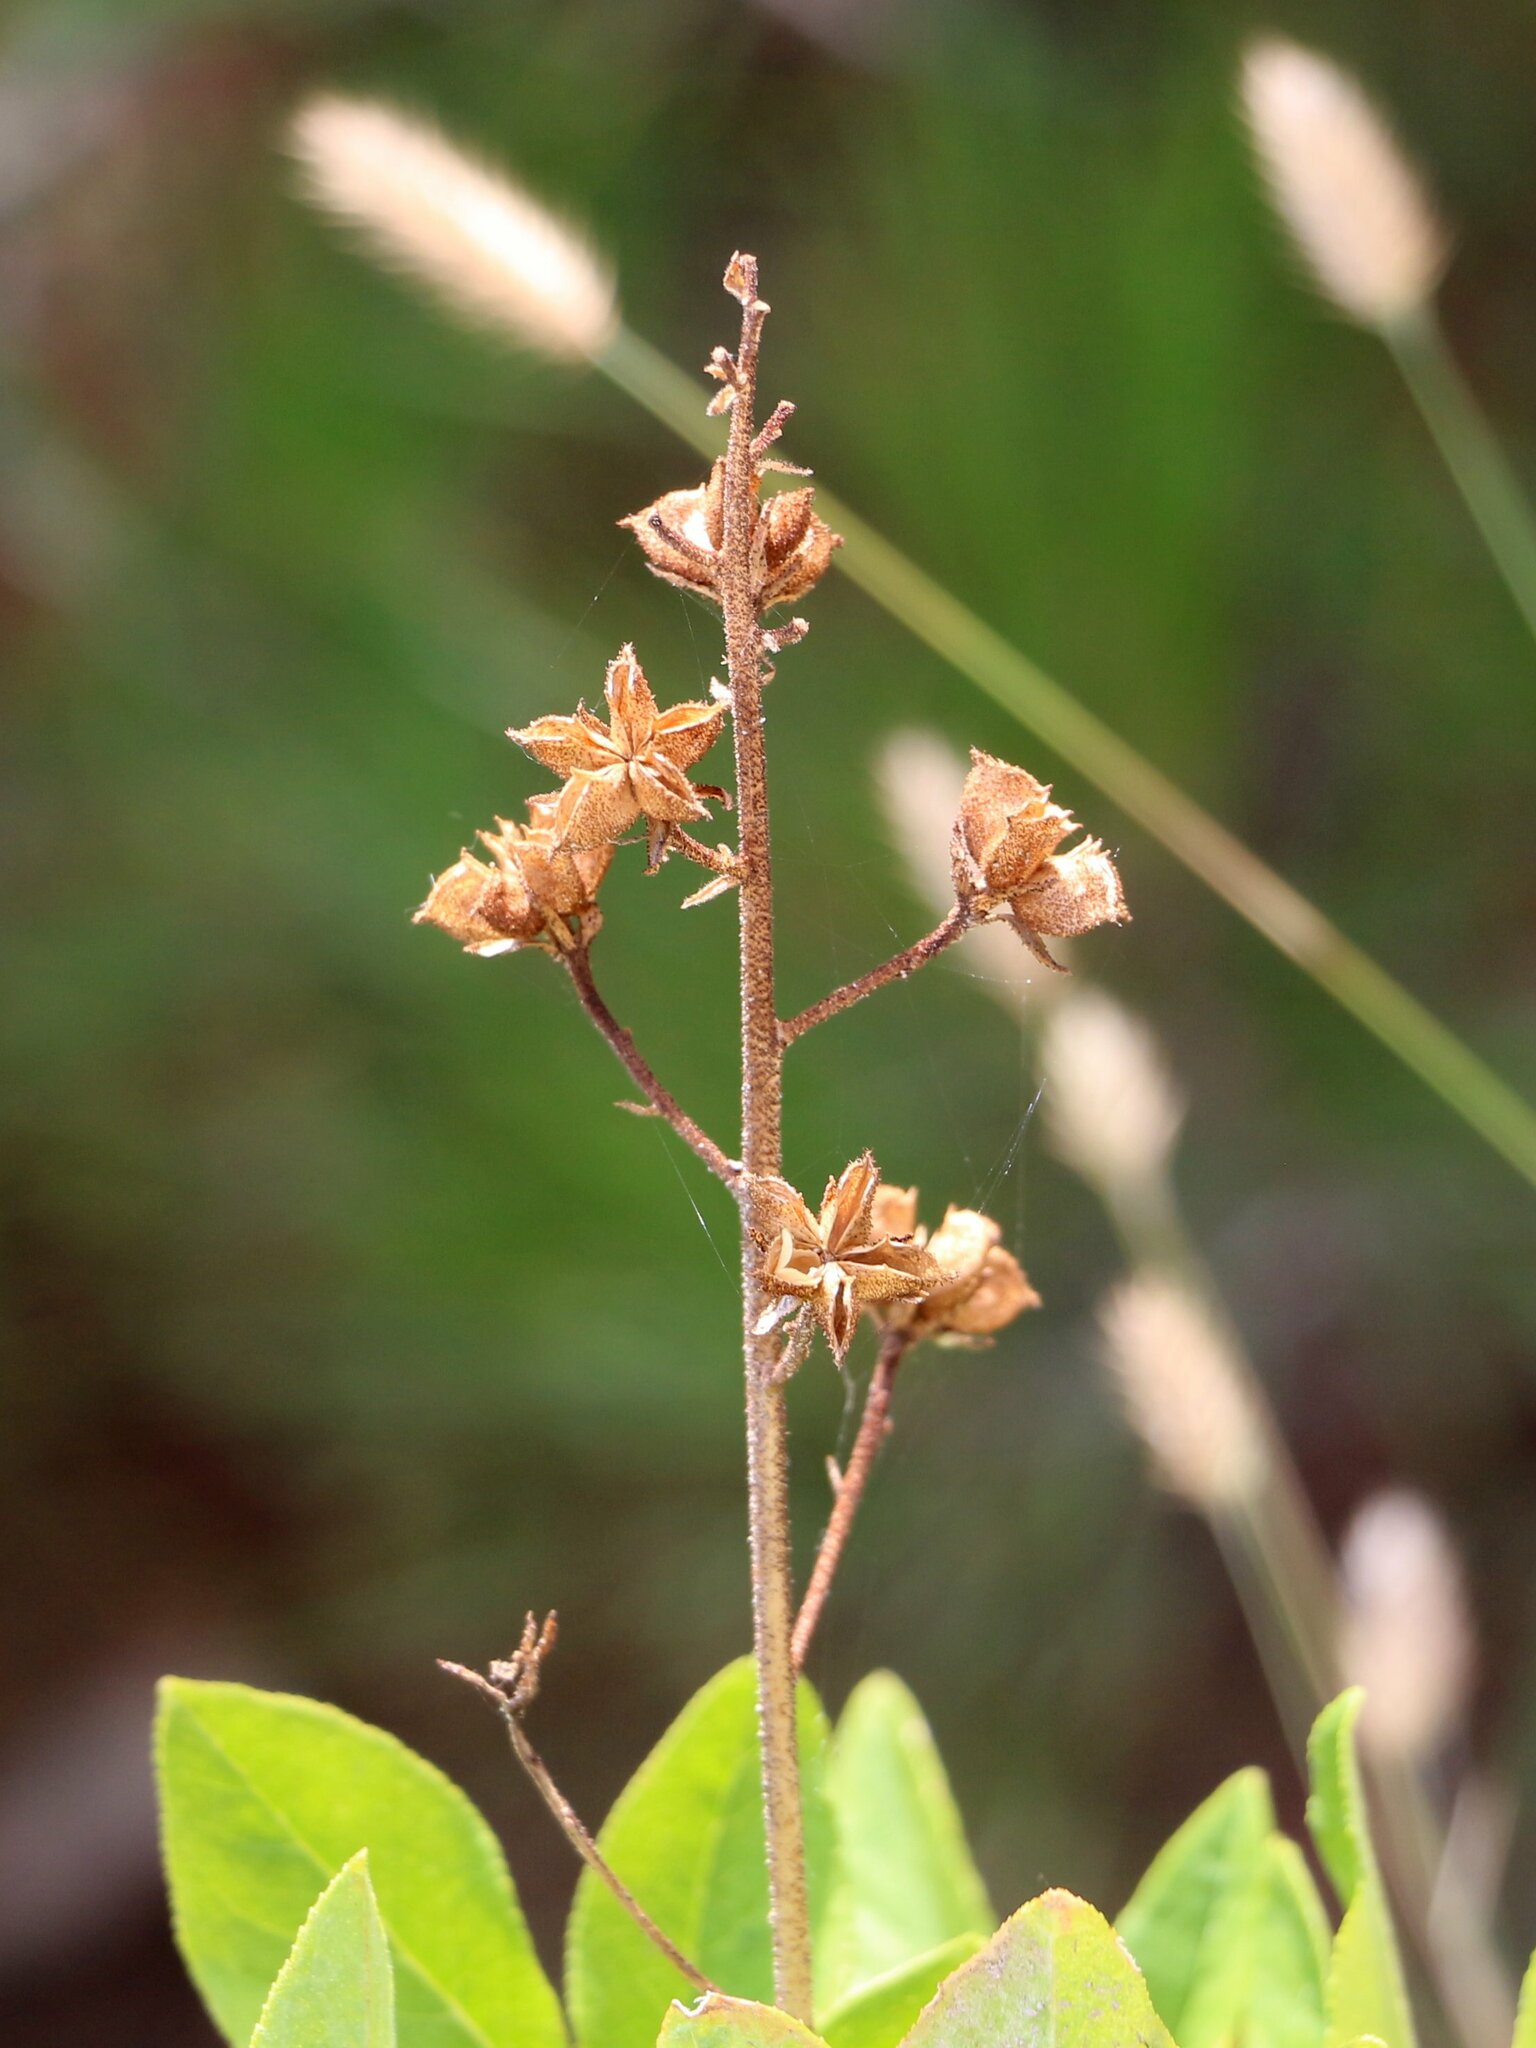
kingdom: Plantae
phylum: Tracheophyta
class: Magnoliopsida
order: Sapindales
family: Rutaceae
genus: Dictamnus
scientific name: Dictamnus albus
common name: Gasplant
